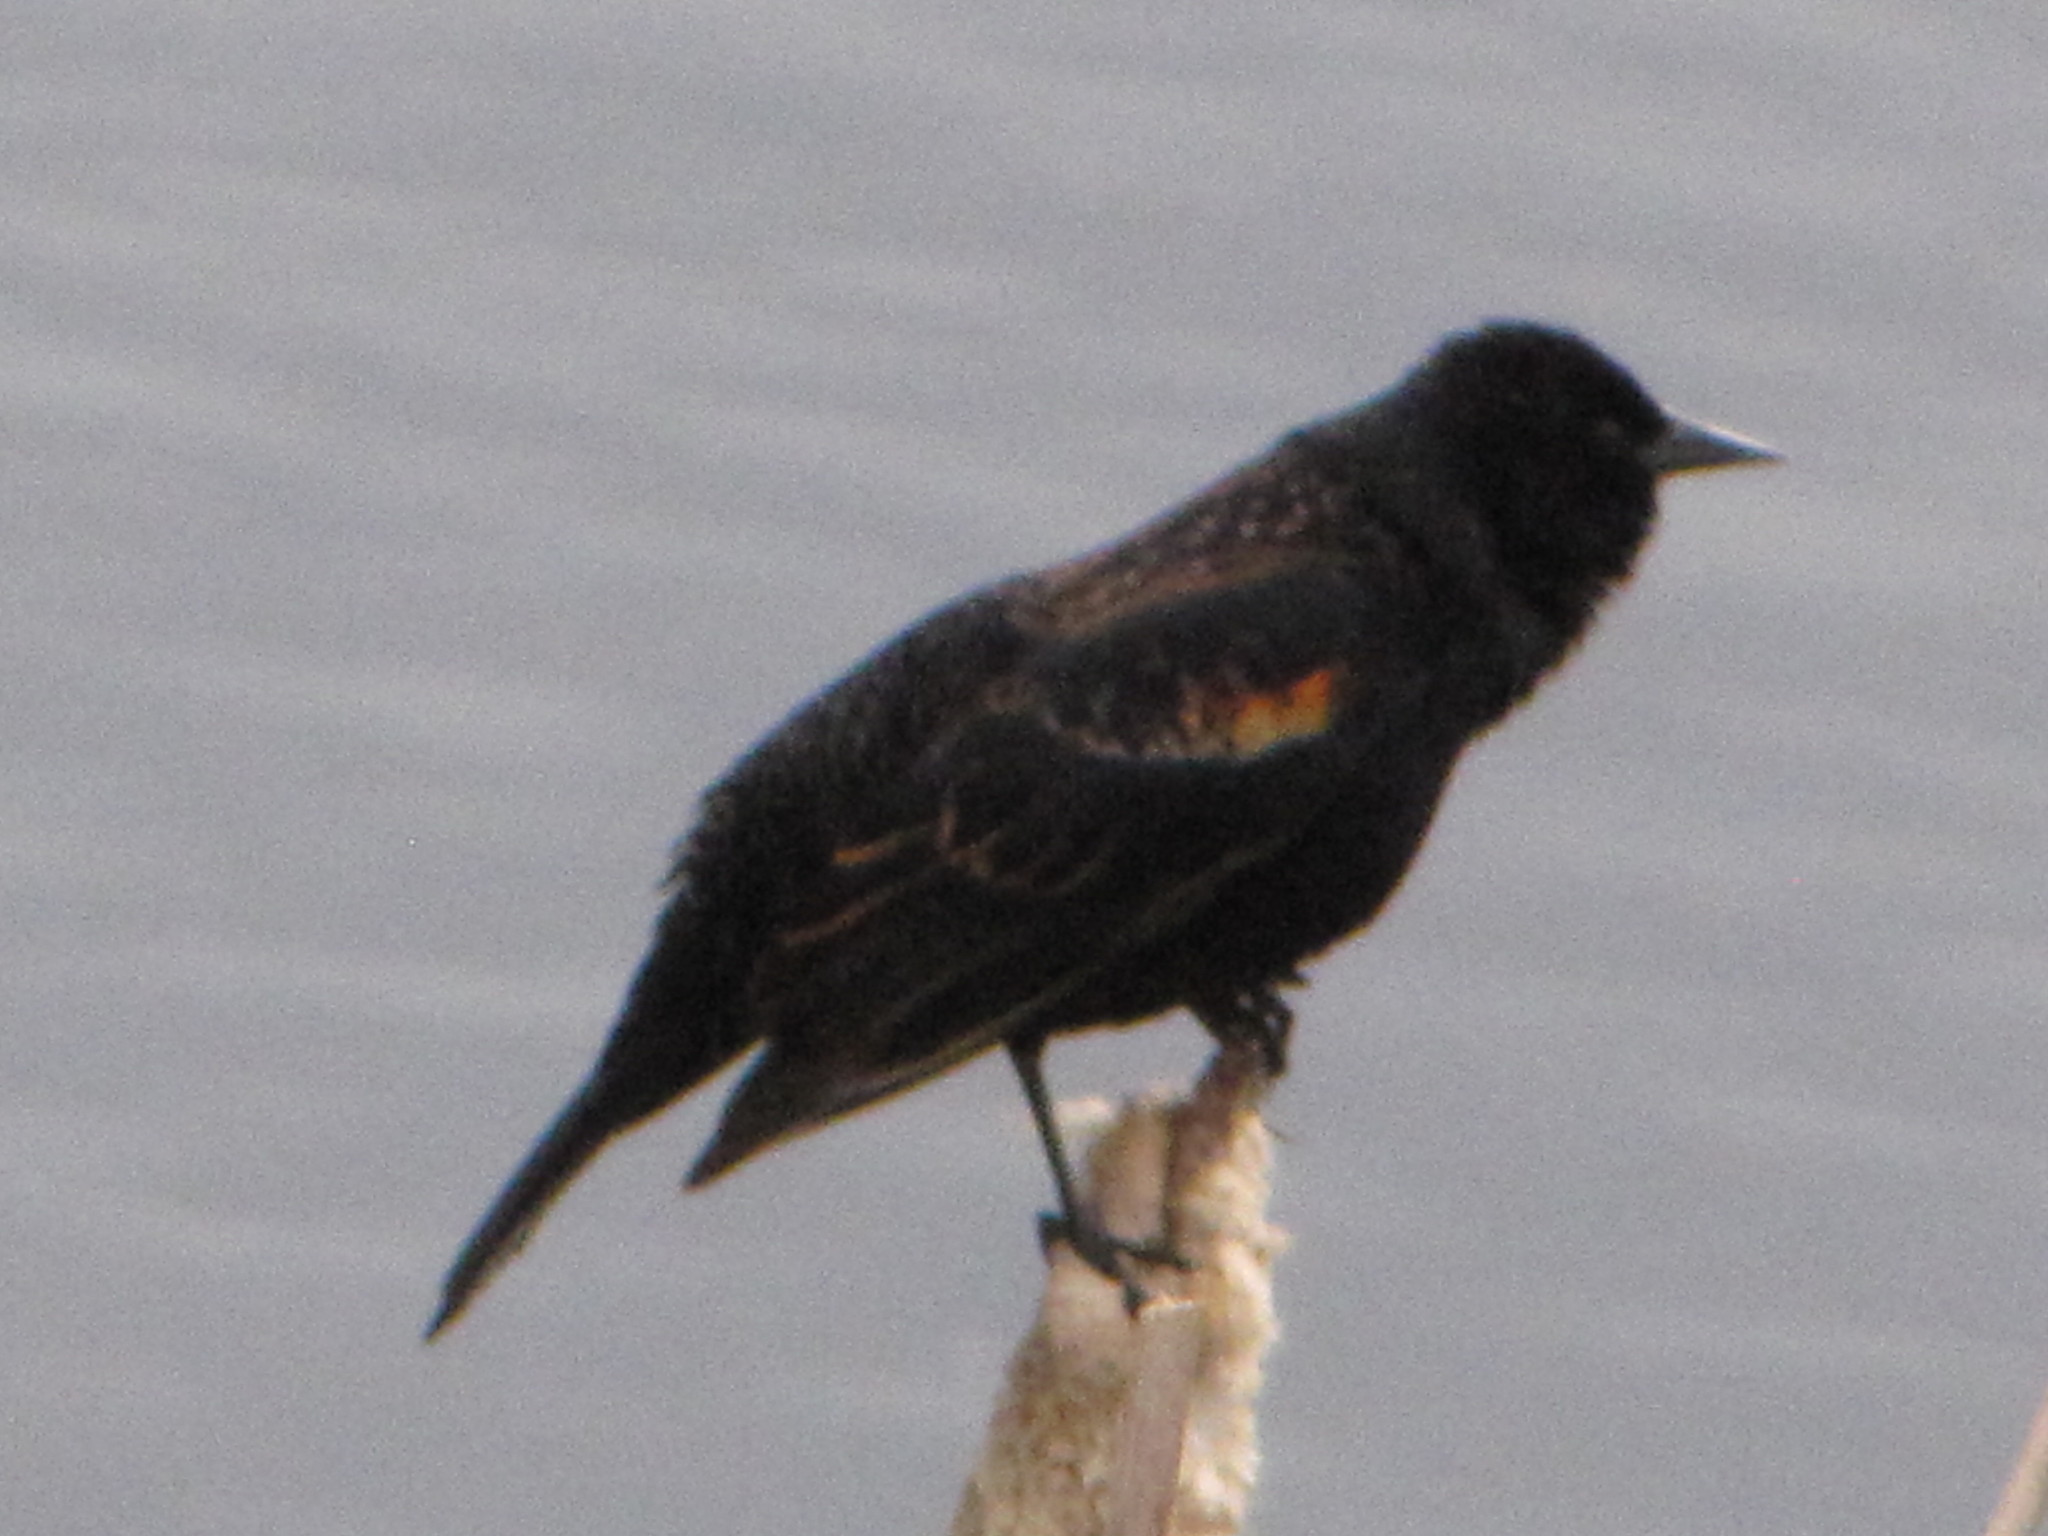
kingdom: Animalia
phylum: Chordata
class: Aves
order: Passeriformes
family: Icteridae
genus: Agelaius
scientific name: Agelaius phoeniceus
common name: Red-winged blackbird
